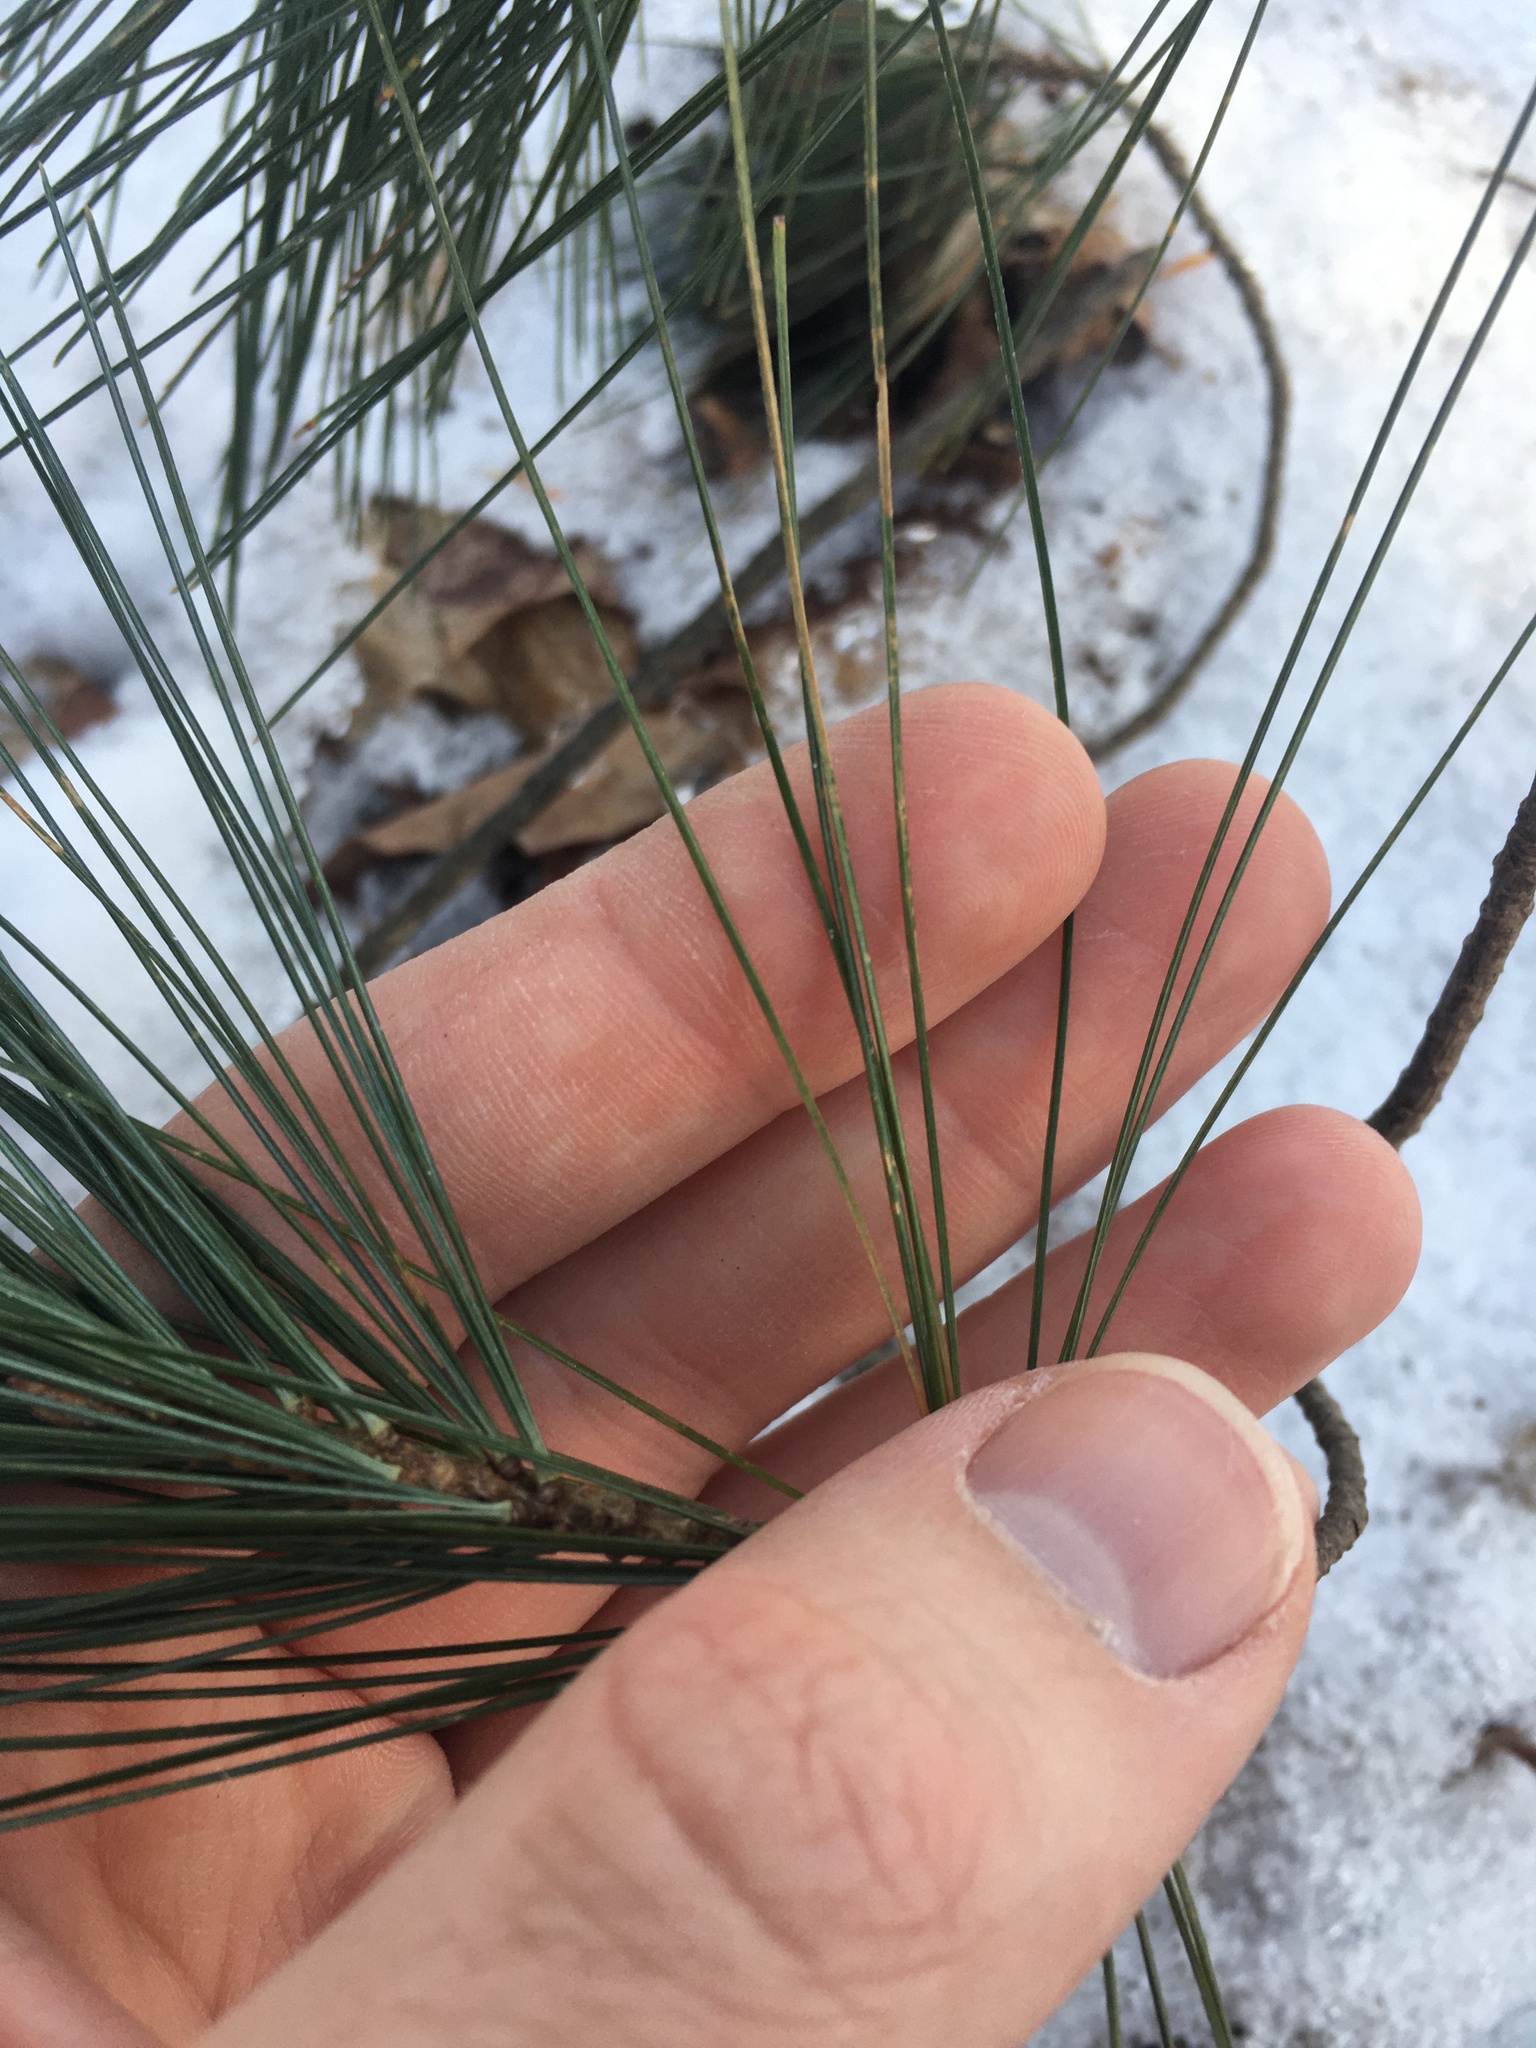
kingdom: Plantae
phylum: Tracheophyta
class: Pinopsida
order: Pinales
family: Pinaceae
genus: Pinus
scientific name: Pinus strobus
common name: Weymouth pine
